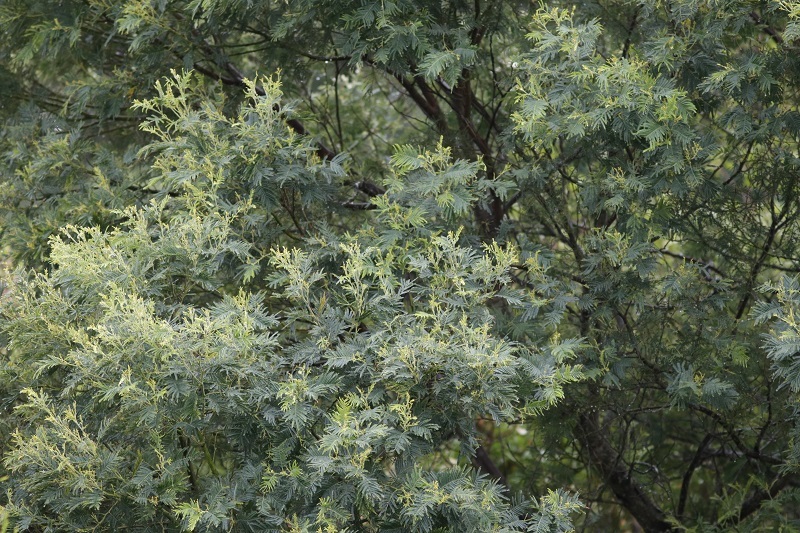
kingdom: Plantae
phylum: Tracheophyta
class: Magnoliopsida
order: Fabales
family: Fabaceae
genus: Acacia
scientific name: Acacia mearnsii
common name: Black wattle
